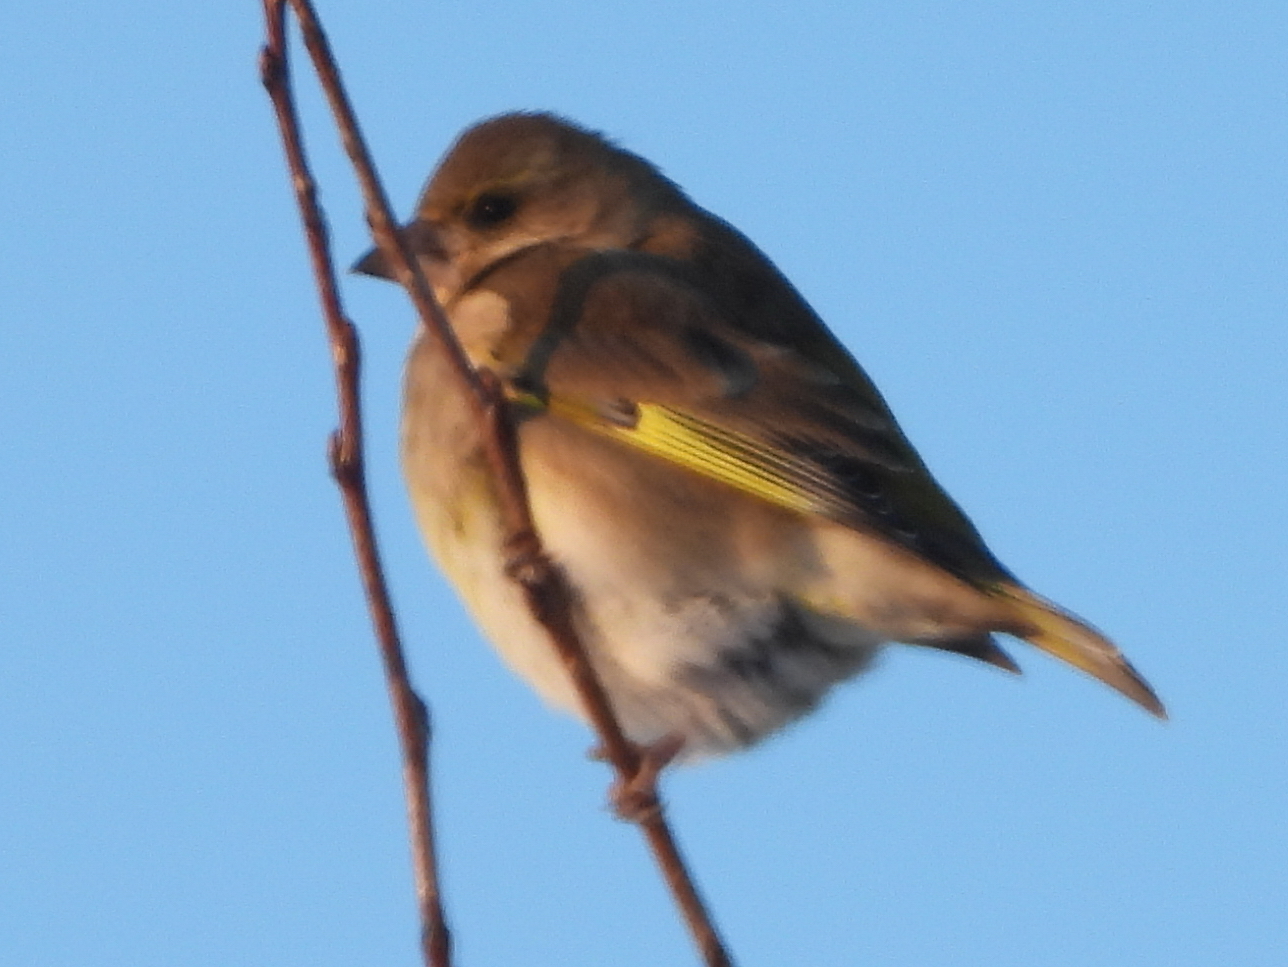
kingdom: Plantae
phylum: Tracheophyta
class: Liliopsida
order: Poales
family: Poaceae
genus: Chloris
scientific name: Chloris chloris
